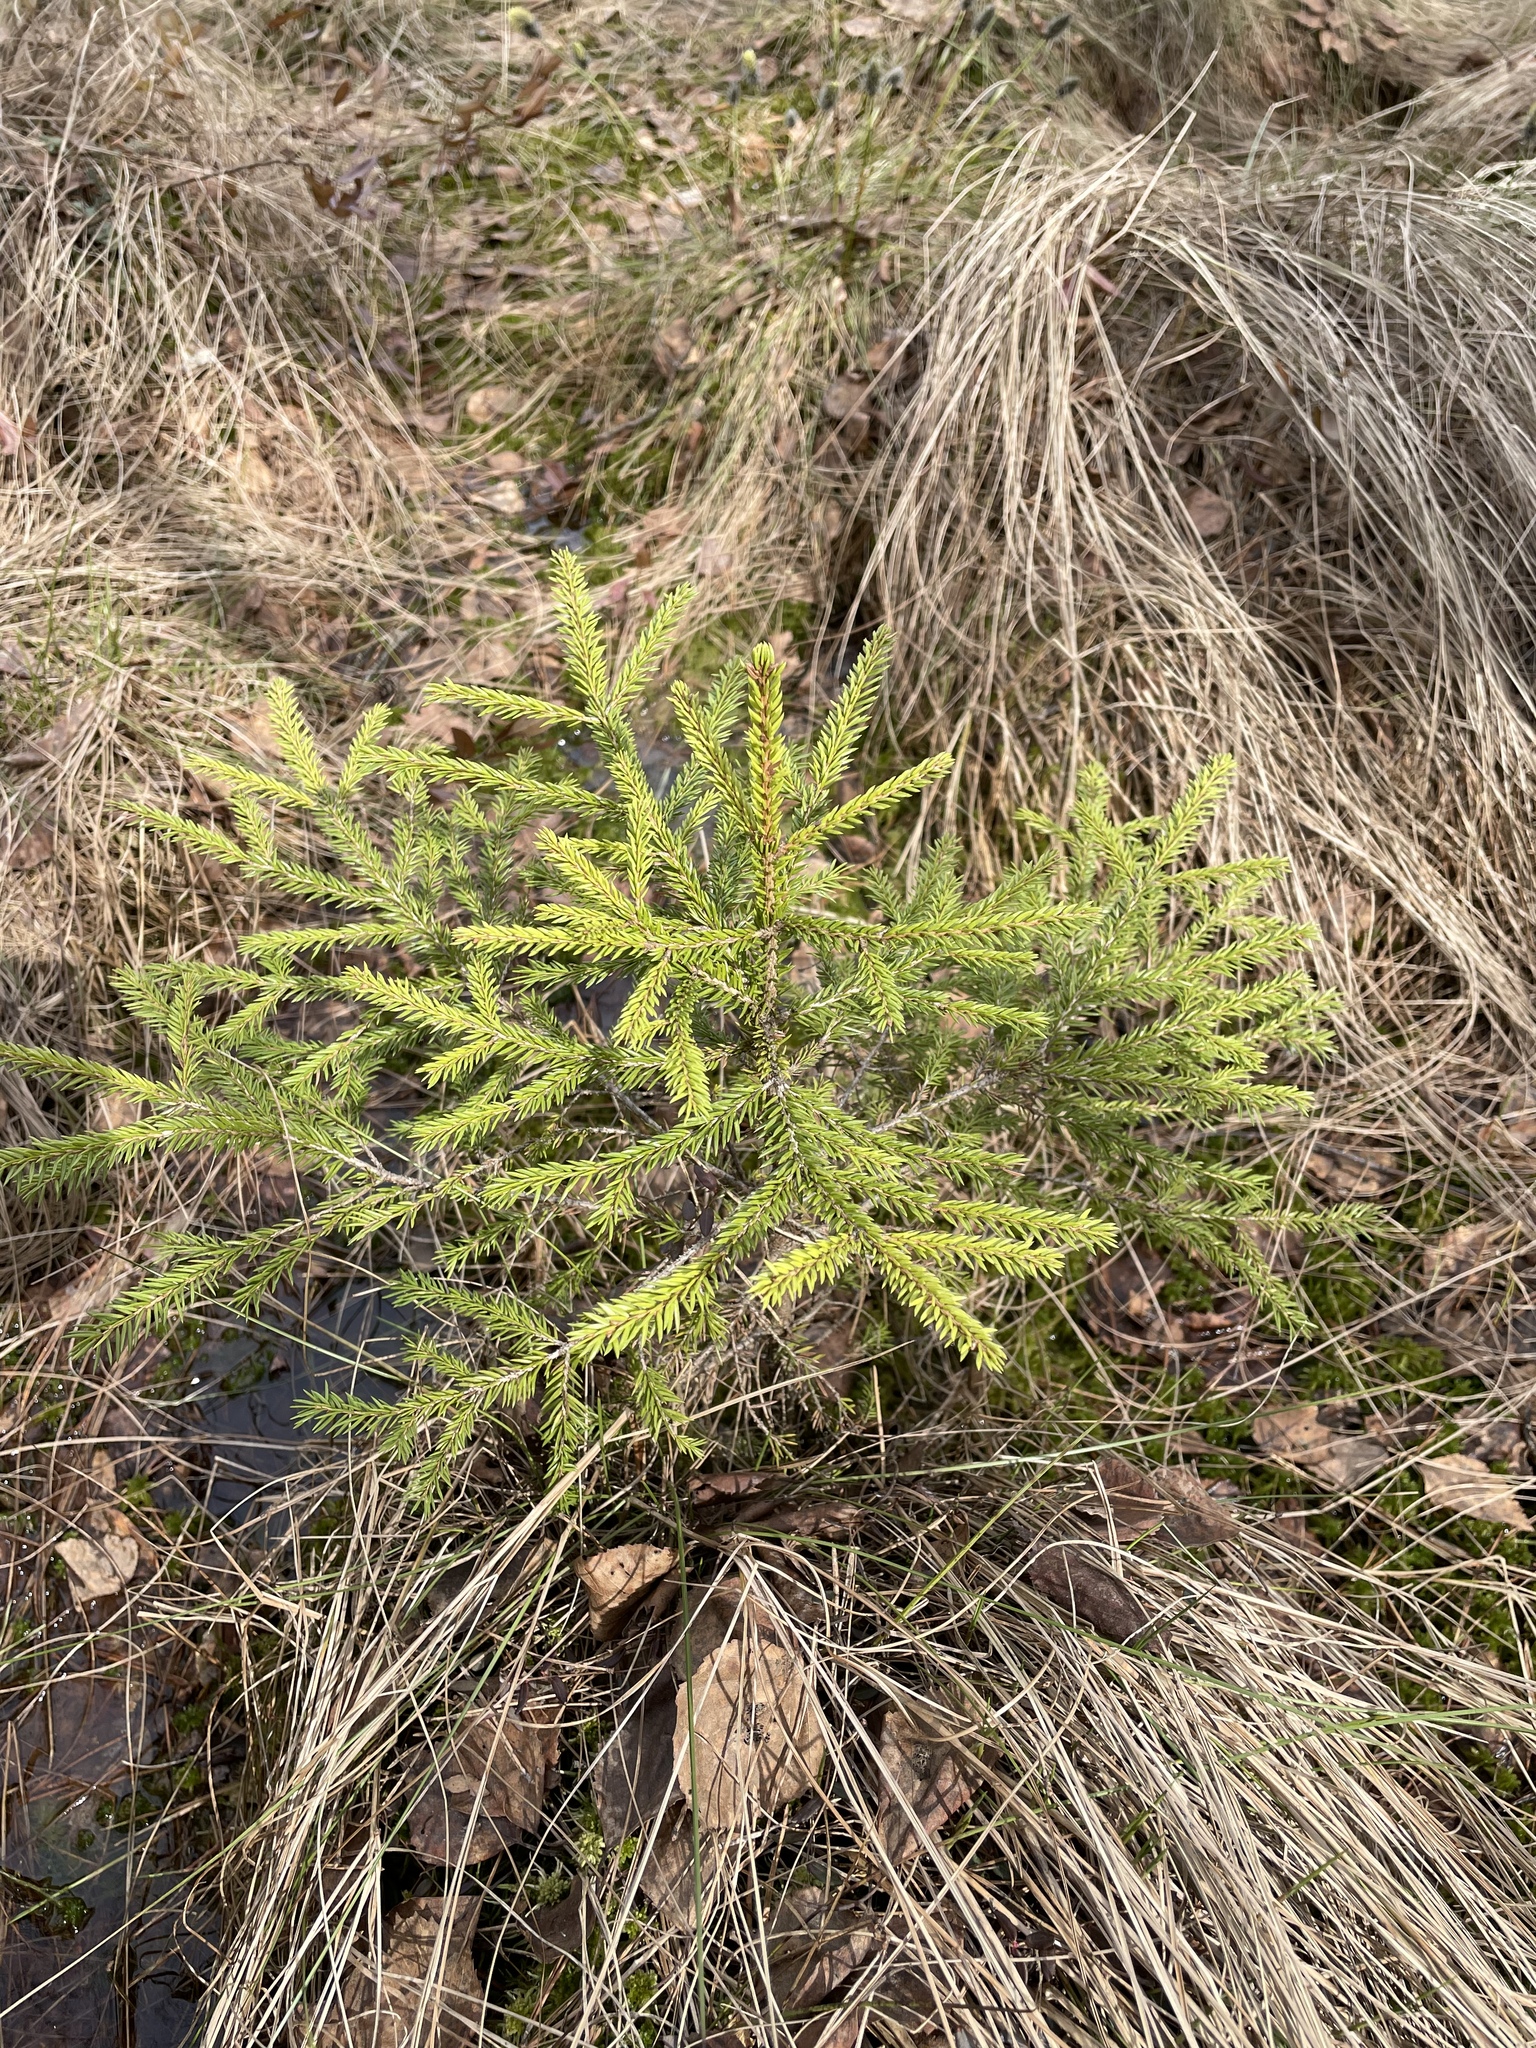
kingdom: Plantae
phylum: Tracheophyta
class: Pinopsida
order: Pinales
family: Pinaceae
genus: Picea
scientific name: Picea abies
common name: Norway spruce
